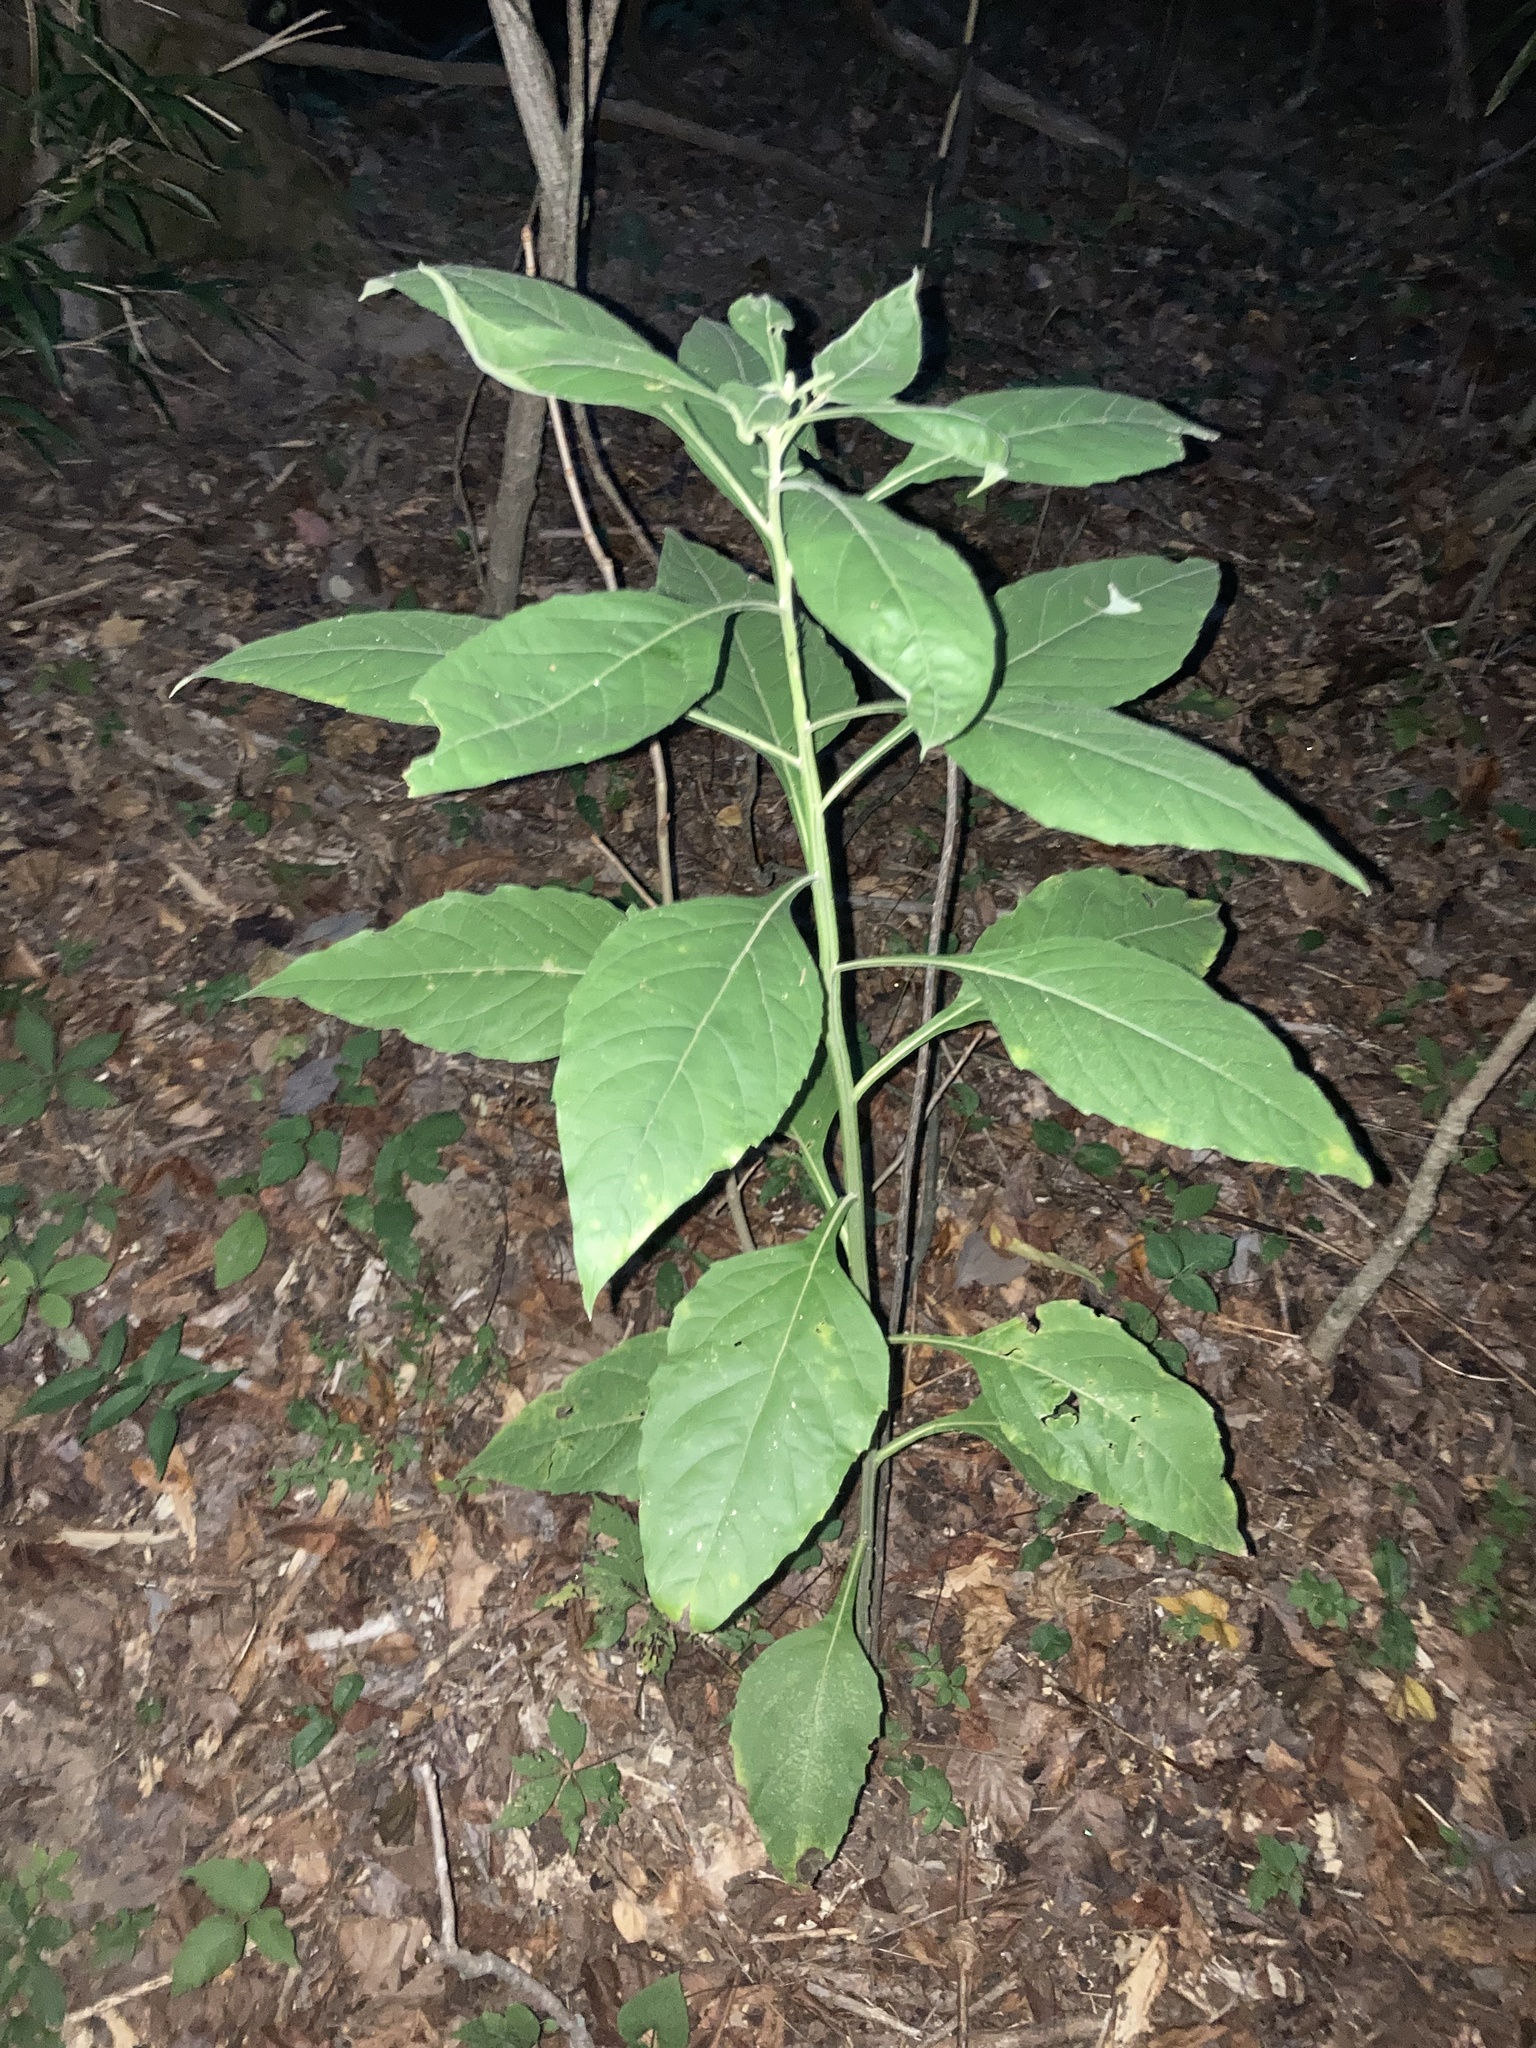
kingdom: Plantae
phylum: Tracheophyta
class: Magnoliopsida
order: Asterales
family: Asteraceae
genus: Verbesina
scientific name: Verbesina virginica
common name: Frostweed
